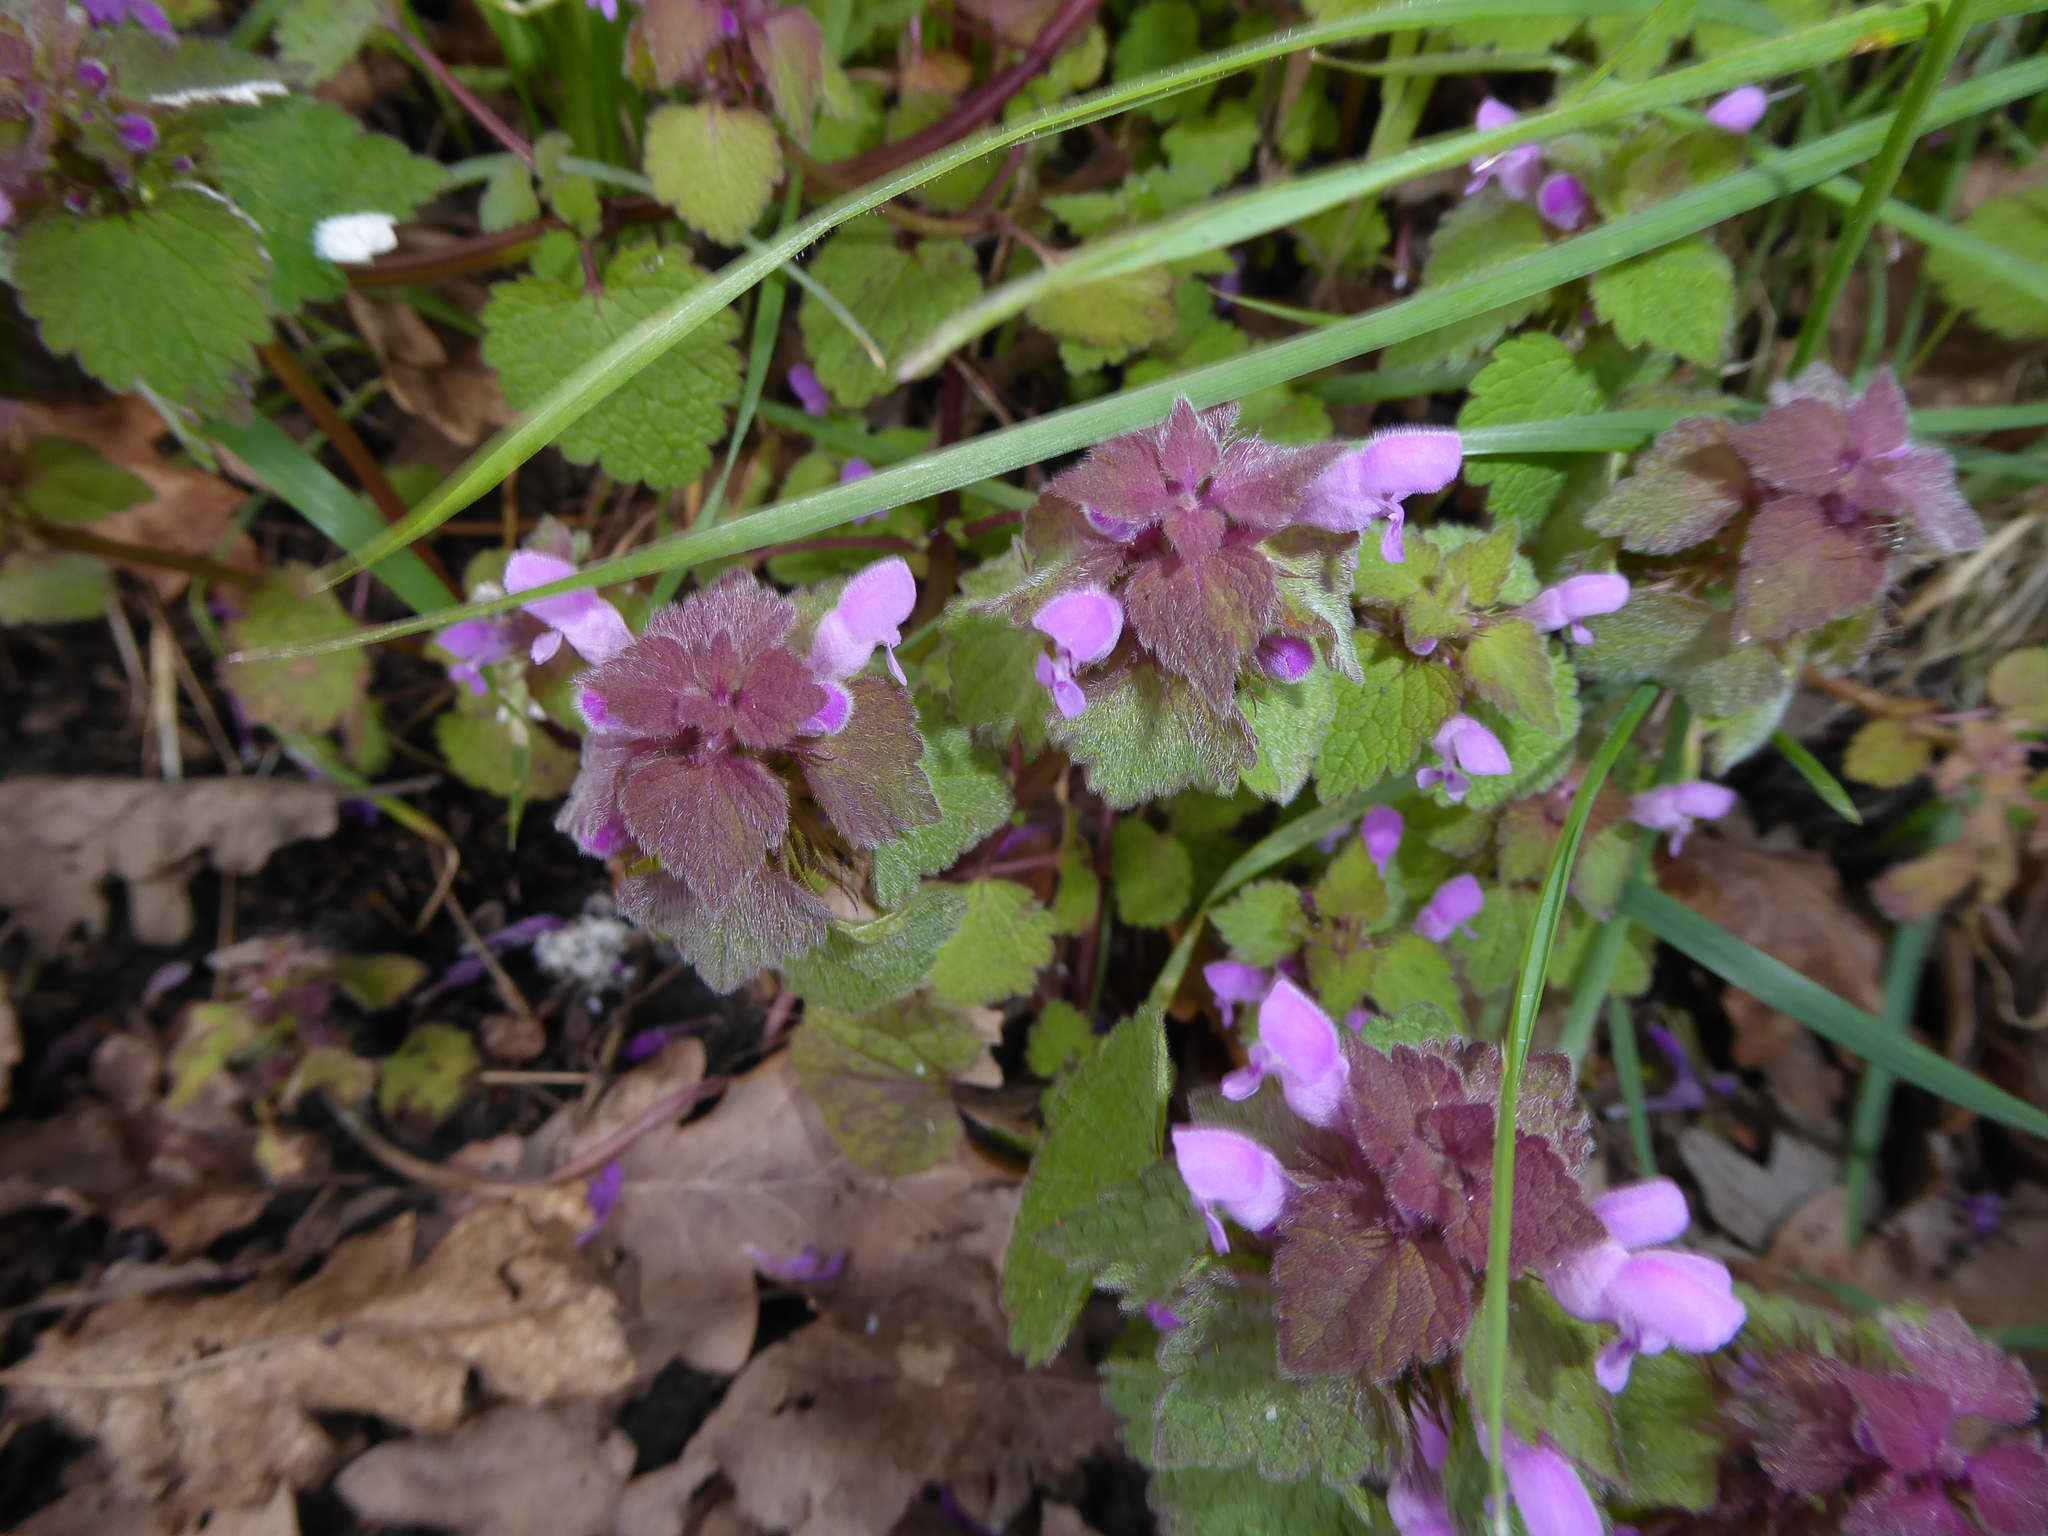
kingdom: Plantae
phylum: Tracheophyta
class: Magnoliopsida
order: Lamiales
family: Lamiaceae
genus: Lamium
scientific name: Lamium purpureum
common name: Red dead-nettle
